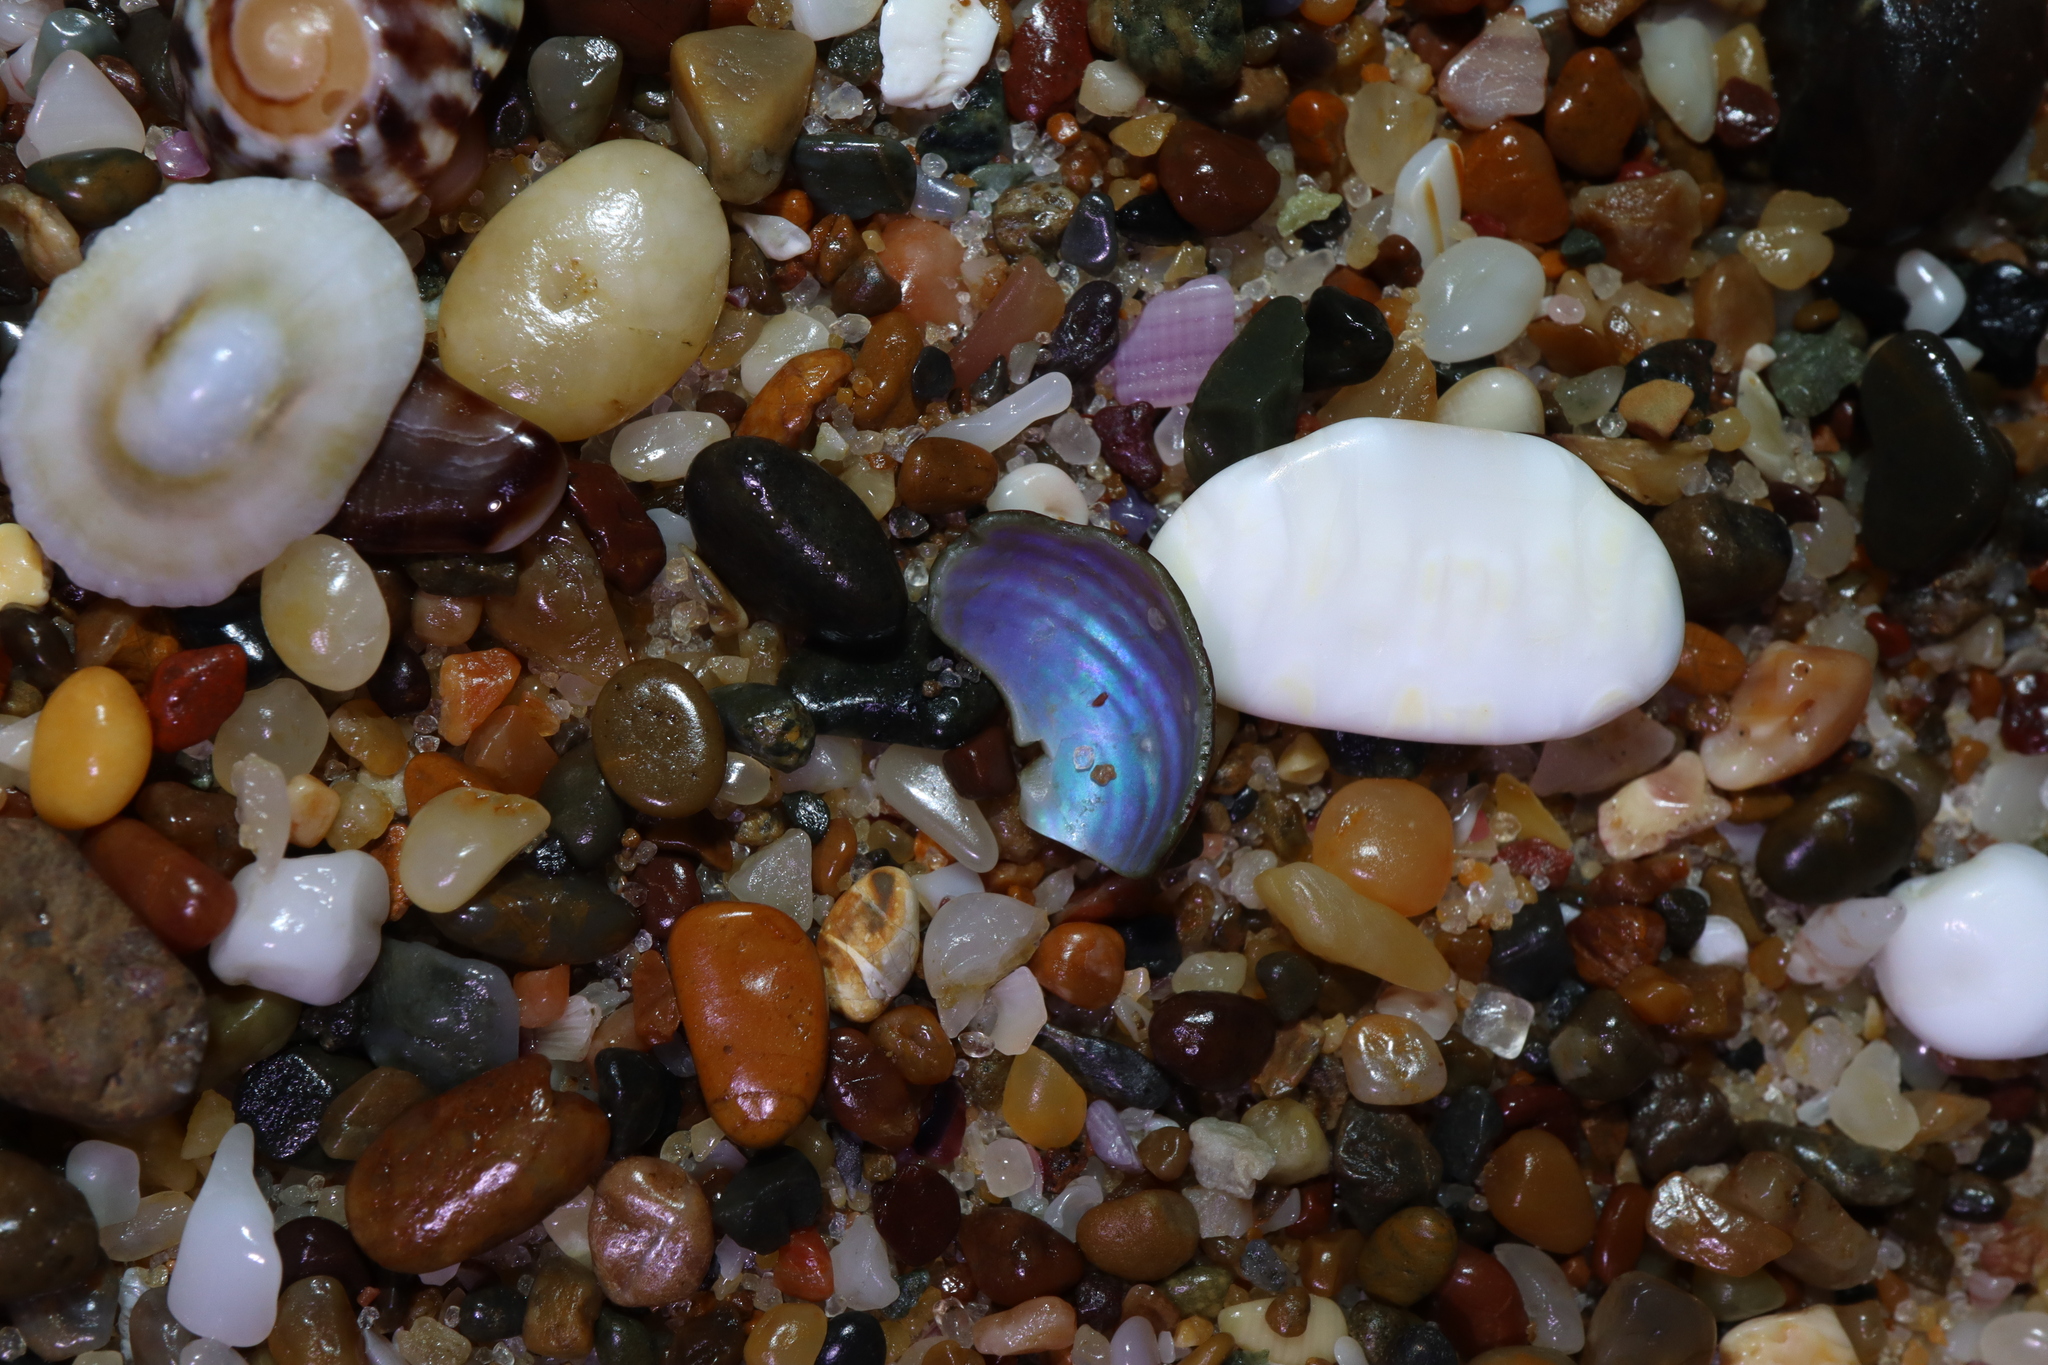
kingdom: Animalia
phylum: Mollusca
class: Gastropoda
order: Trochida
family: Trochidae
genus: Phasianotrochus
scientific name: Phasianotrochus eximius
